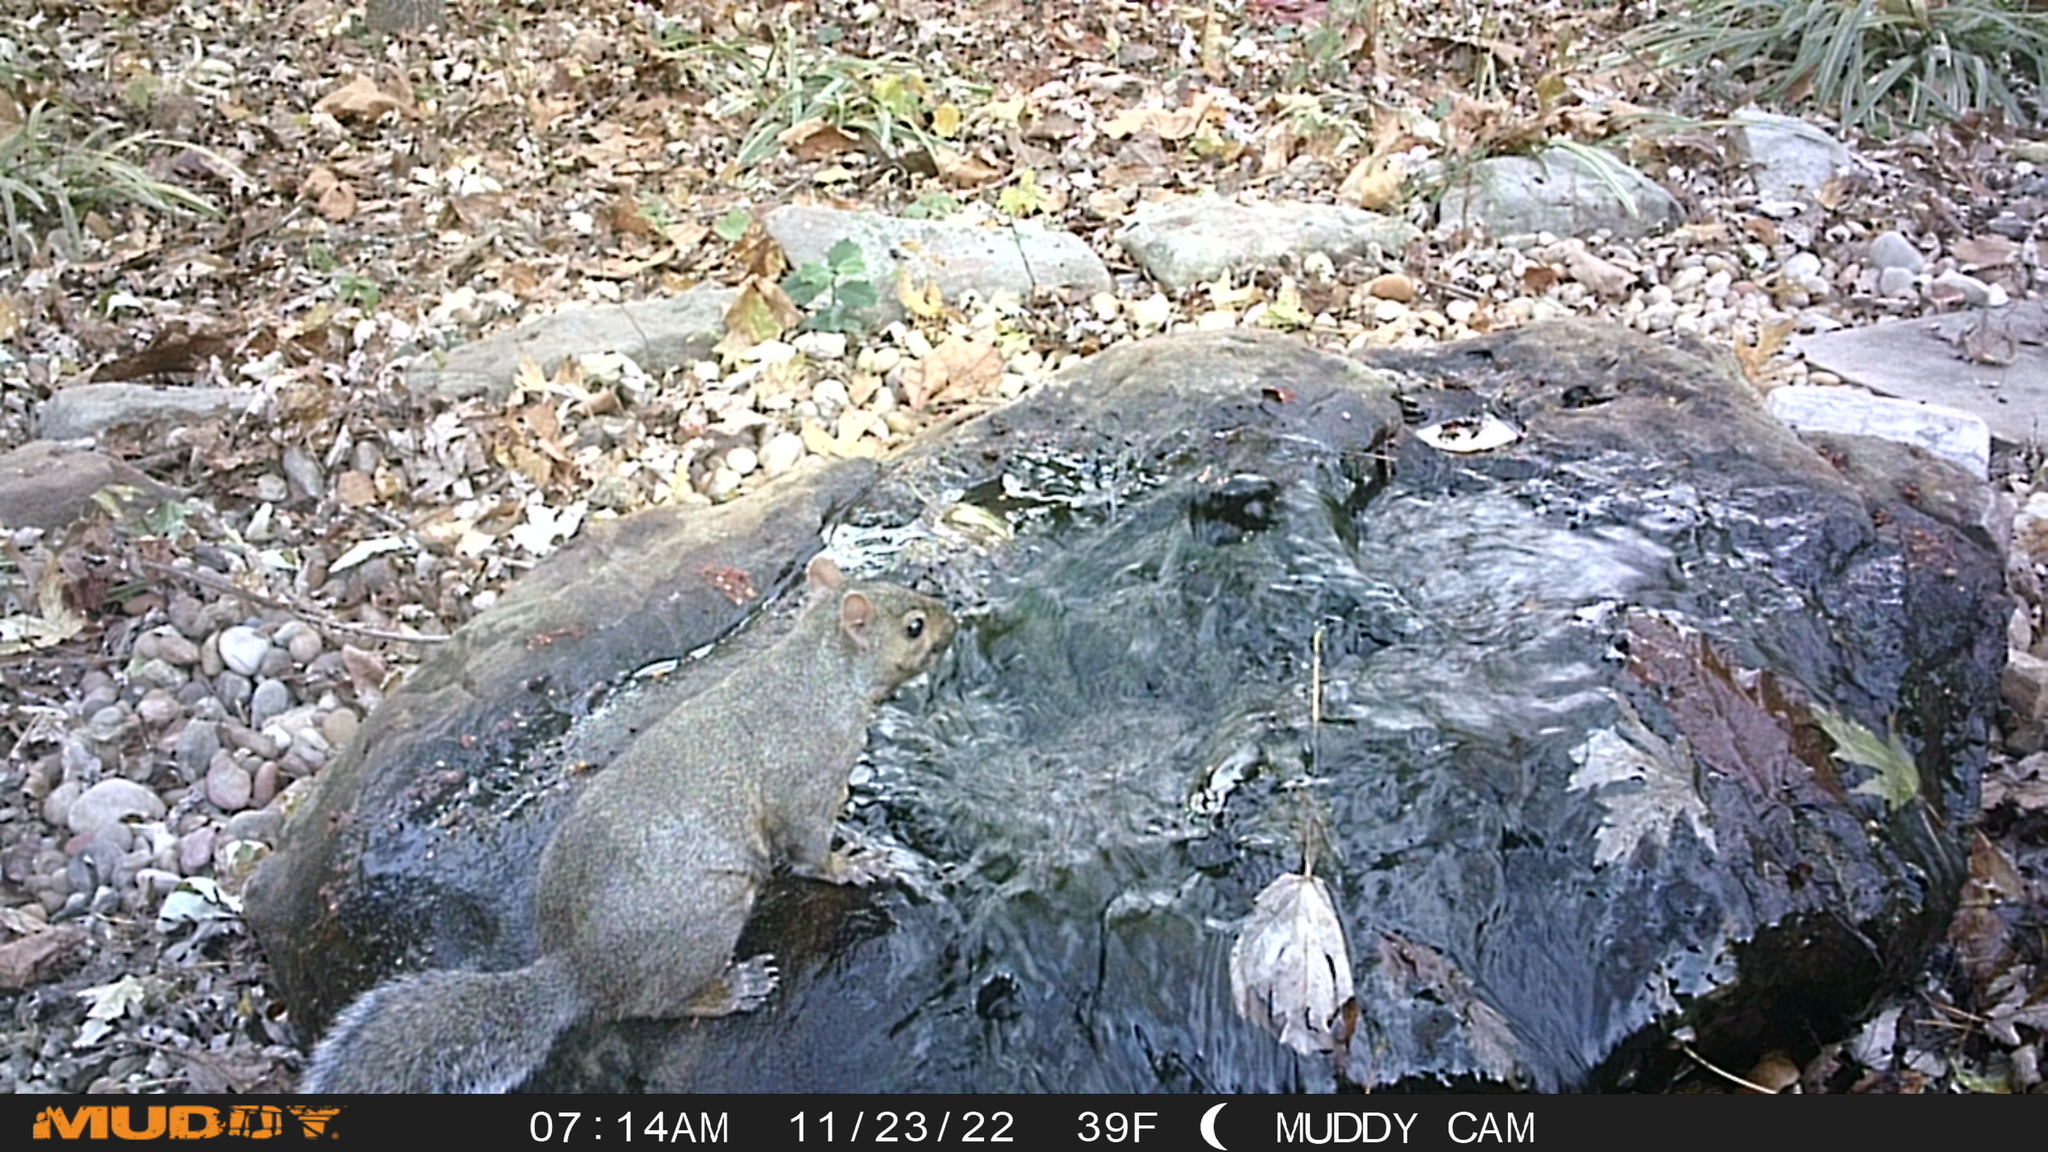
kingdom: Animalia
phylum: Chordata
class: Mammalia
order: Rodentia
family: Sciuridae
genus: Sciurus
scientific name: Sciurus carolinensis
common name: Eastern gray squirrel
